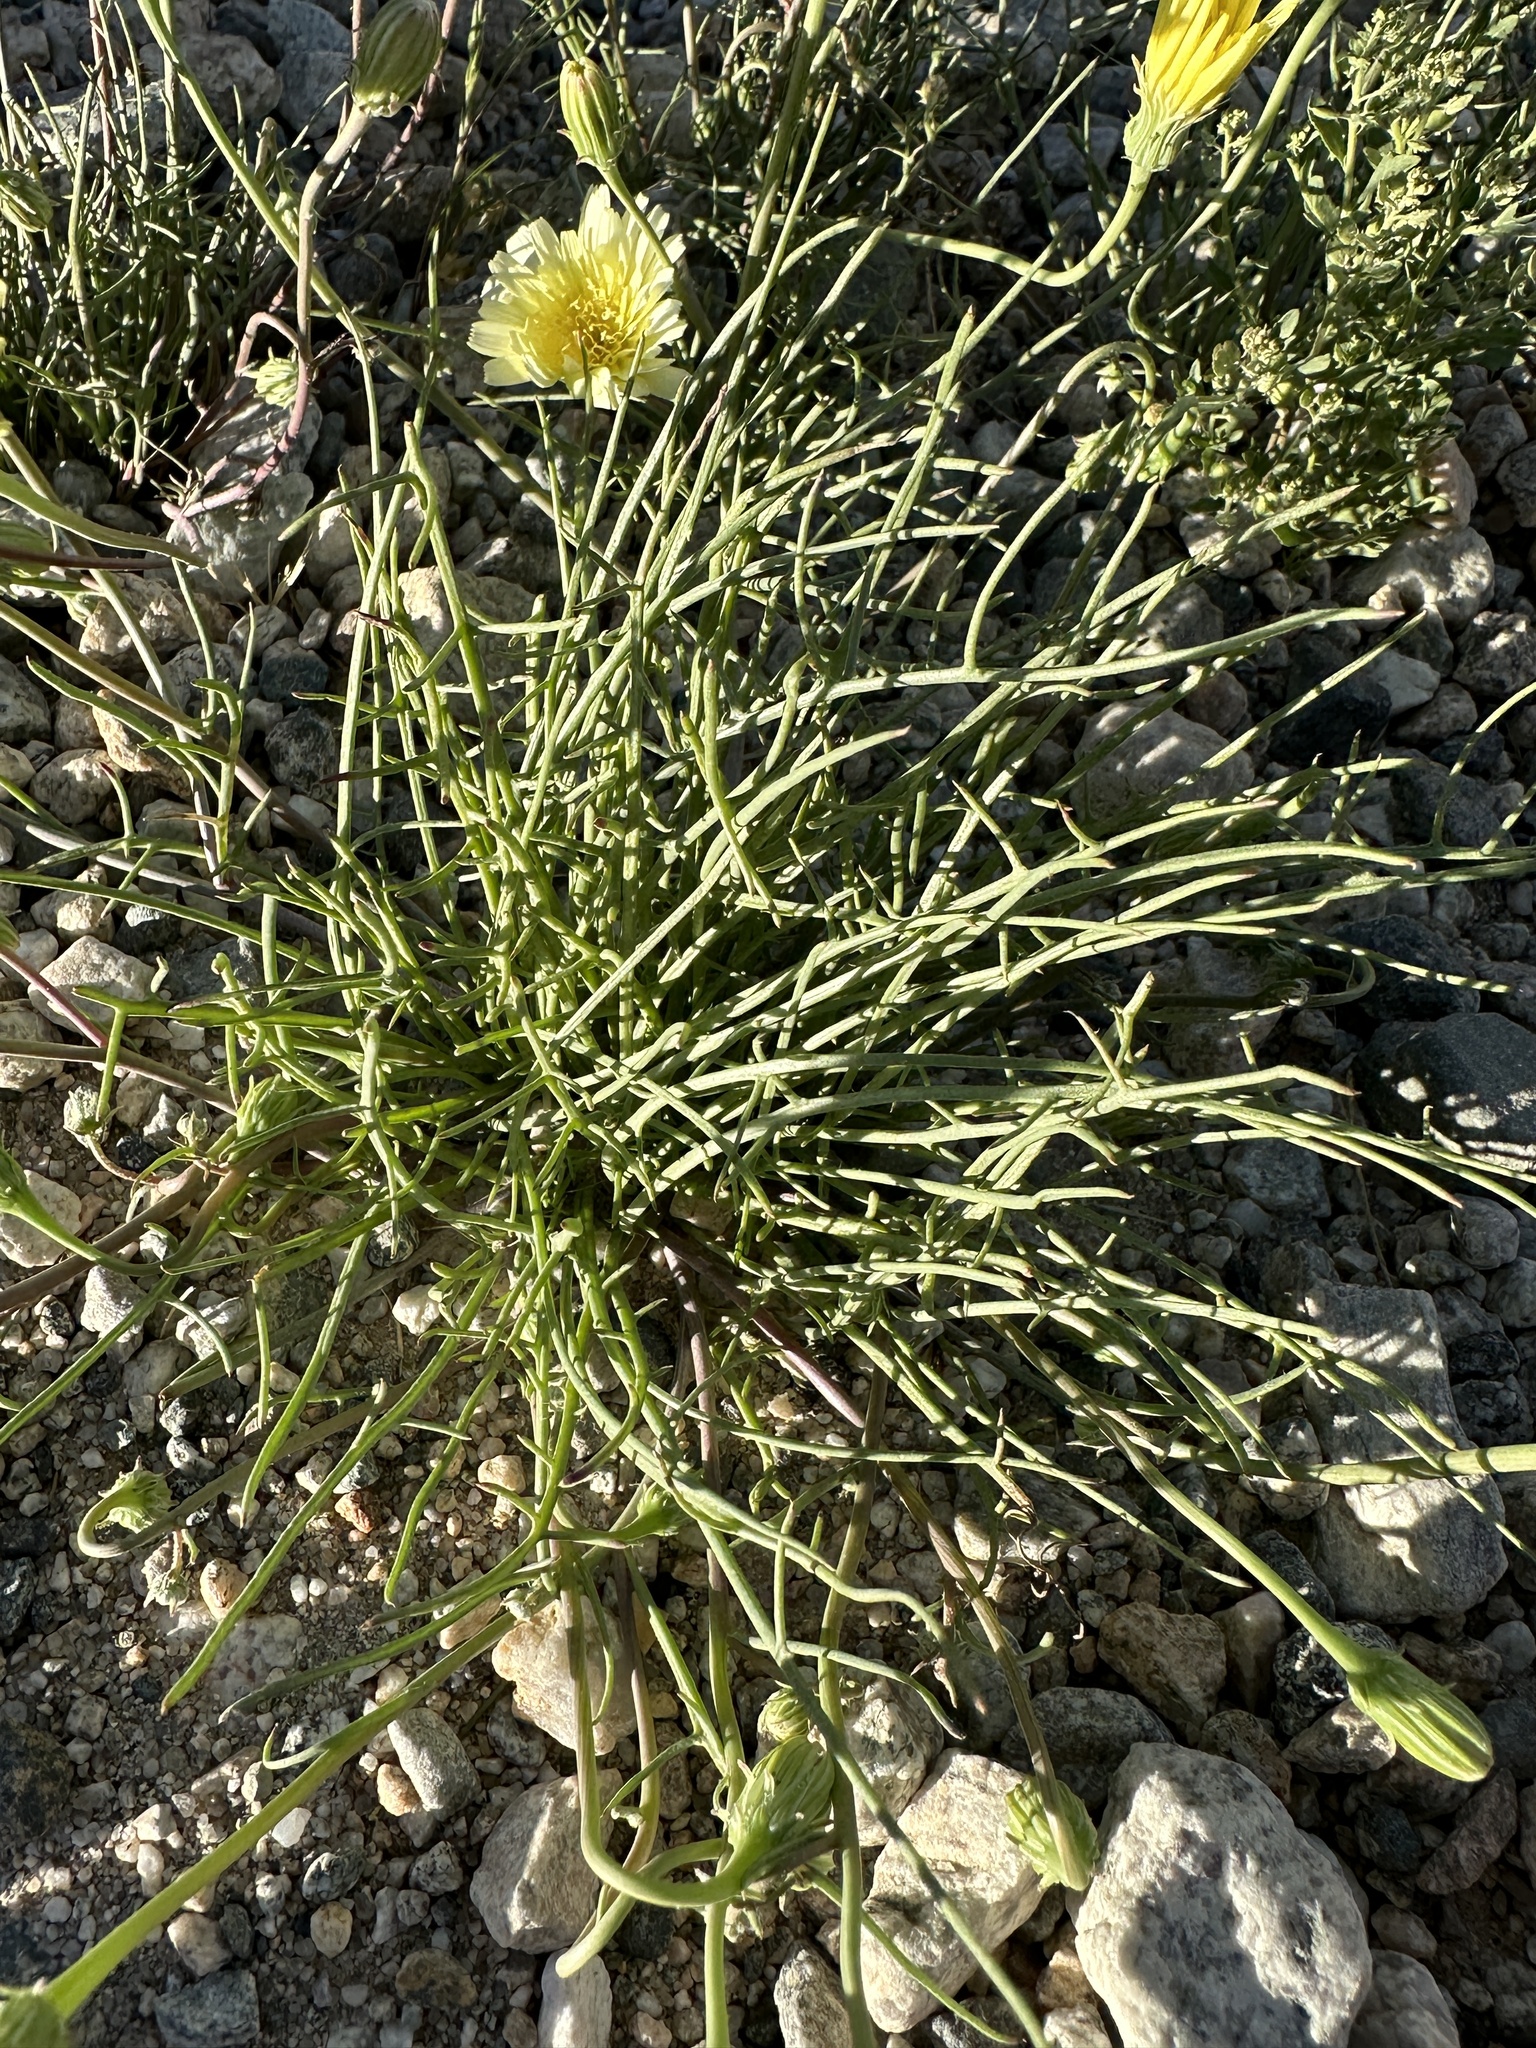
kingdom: Plantae
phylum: Tracheophyta
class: Magnoliopsida
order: Asterales
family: Asteraceae
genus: Malacothrix
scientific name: Malacothrix glabrata
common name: Smooth desert-dandelion
